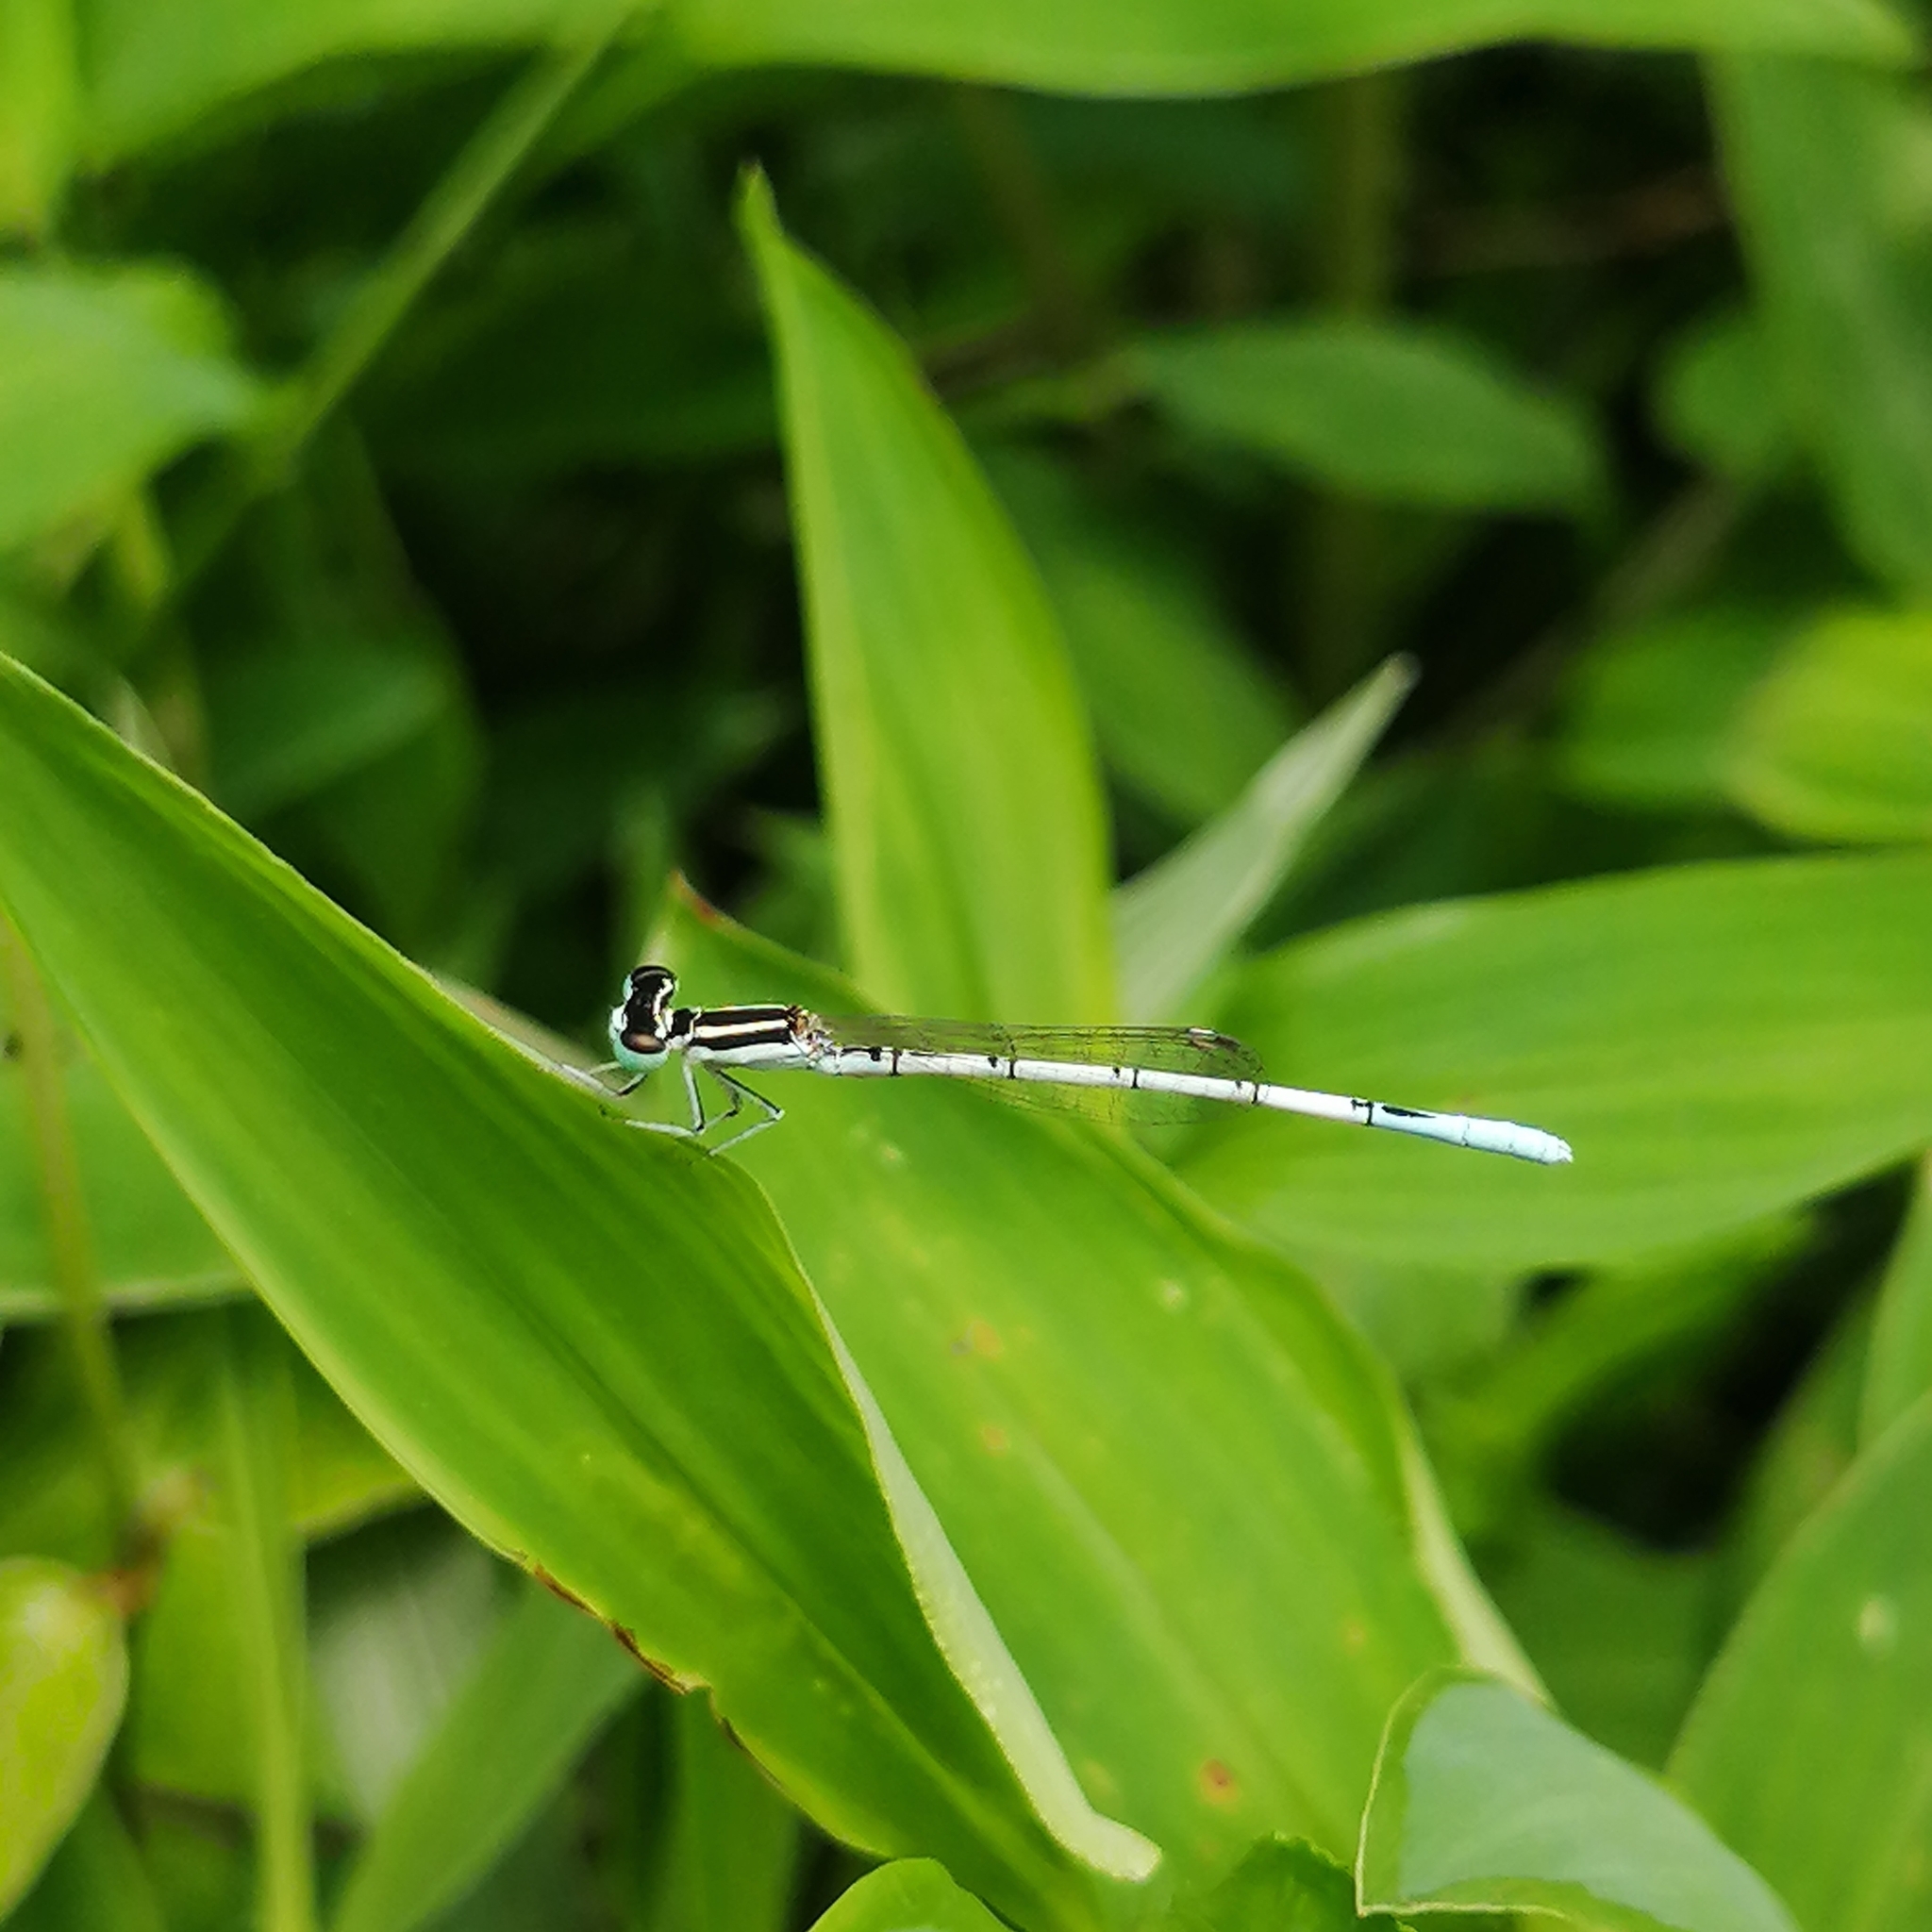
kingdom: Animalia
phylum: Arthropoda
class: Insecta
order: Odonata
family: Coenagrionidae
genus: Agriocnemis
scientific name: Agriocnemis pieris
